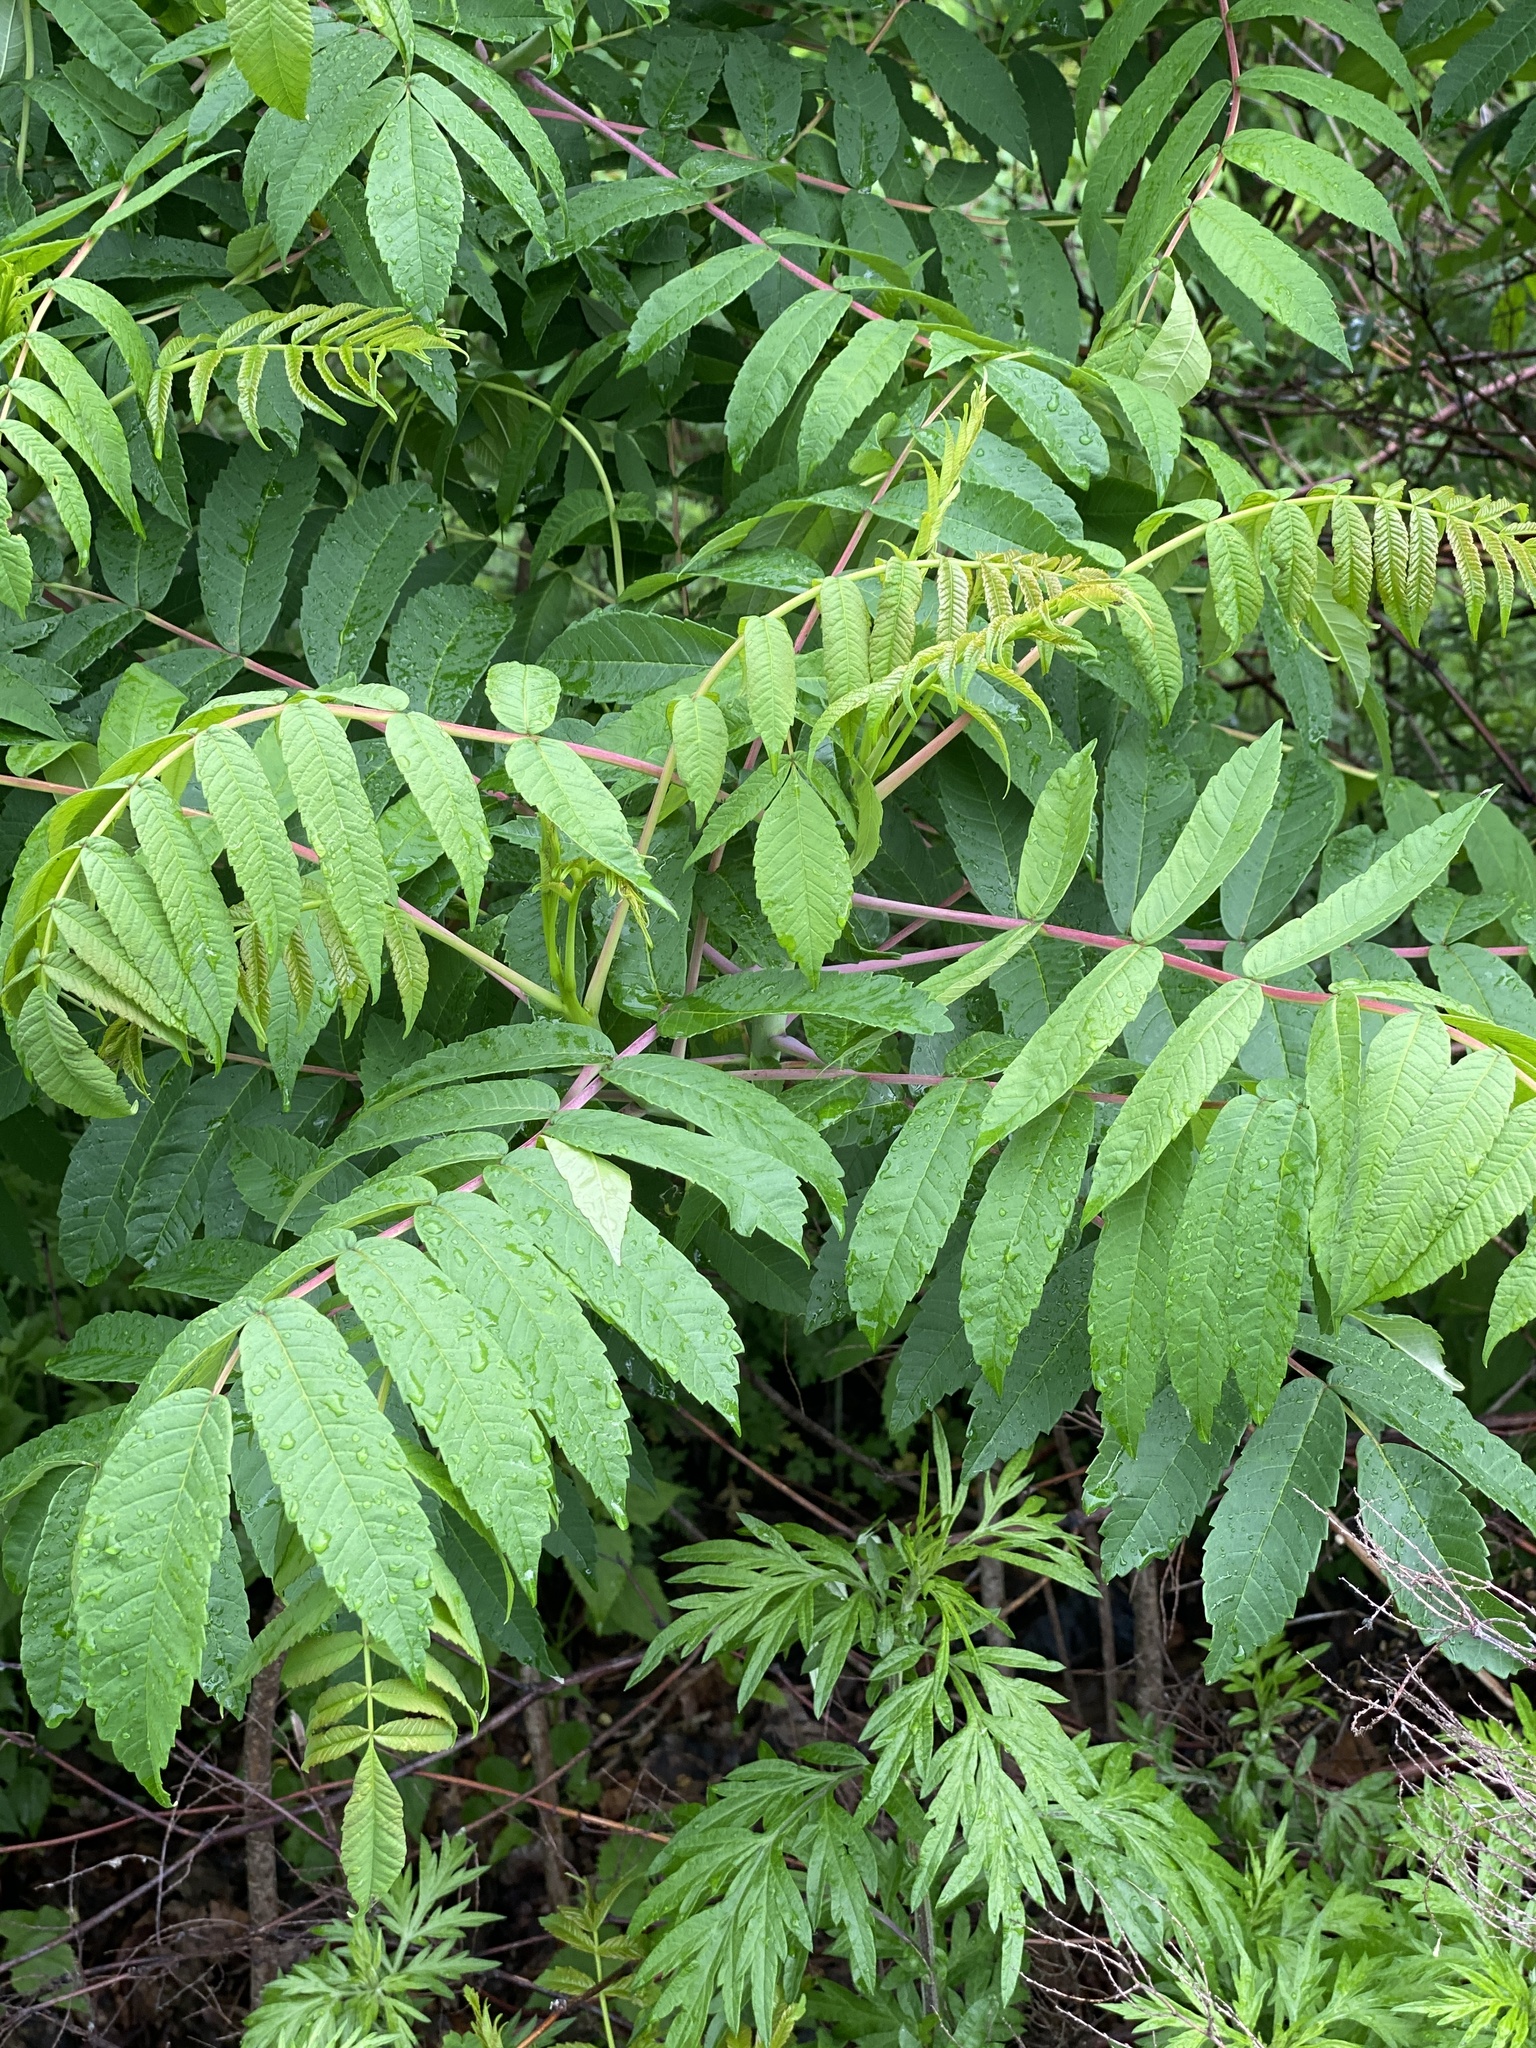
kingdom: Plantae
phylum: Tracheophyta
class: Magnoliopsida
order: Sapindales
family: Anacardiaceae
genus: Rhus
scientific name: Rhus glabra
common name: Scarlet sumac
